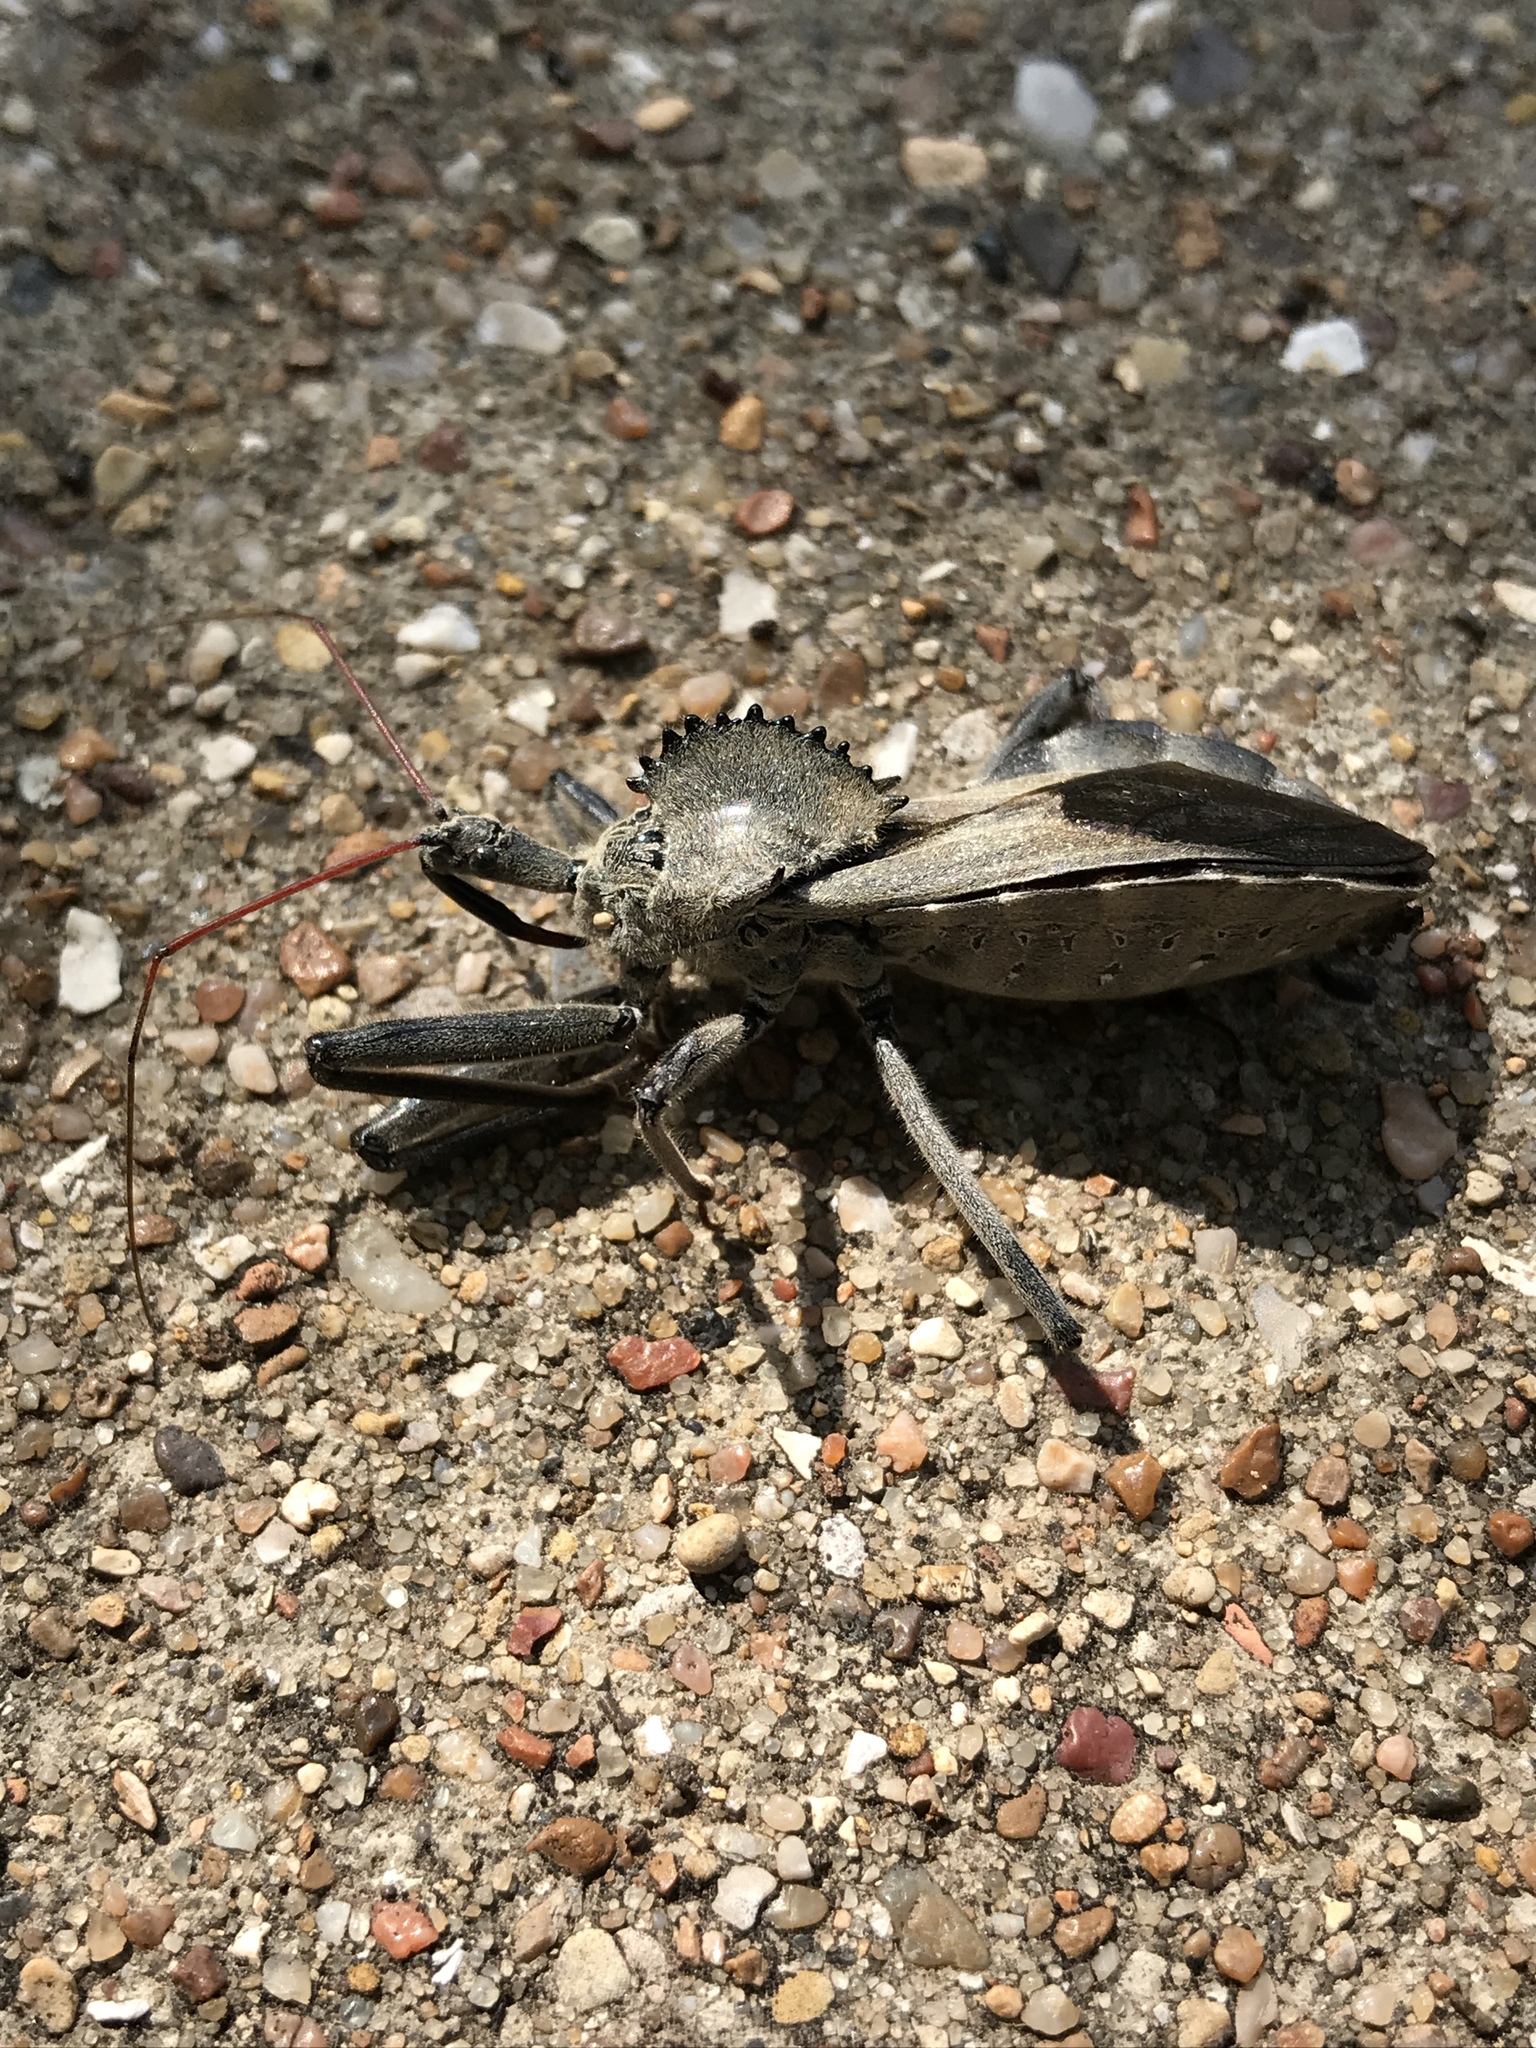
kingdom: Animalia
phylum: Arthropoda
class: Insecta
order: Hemiptera
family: Reduviidae
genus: Arilus
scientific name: Arilus cristatus
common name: North american wheel bug
